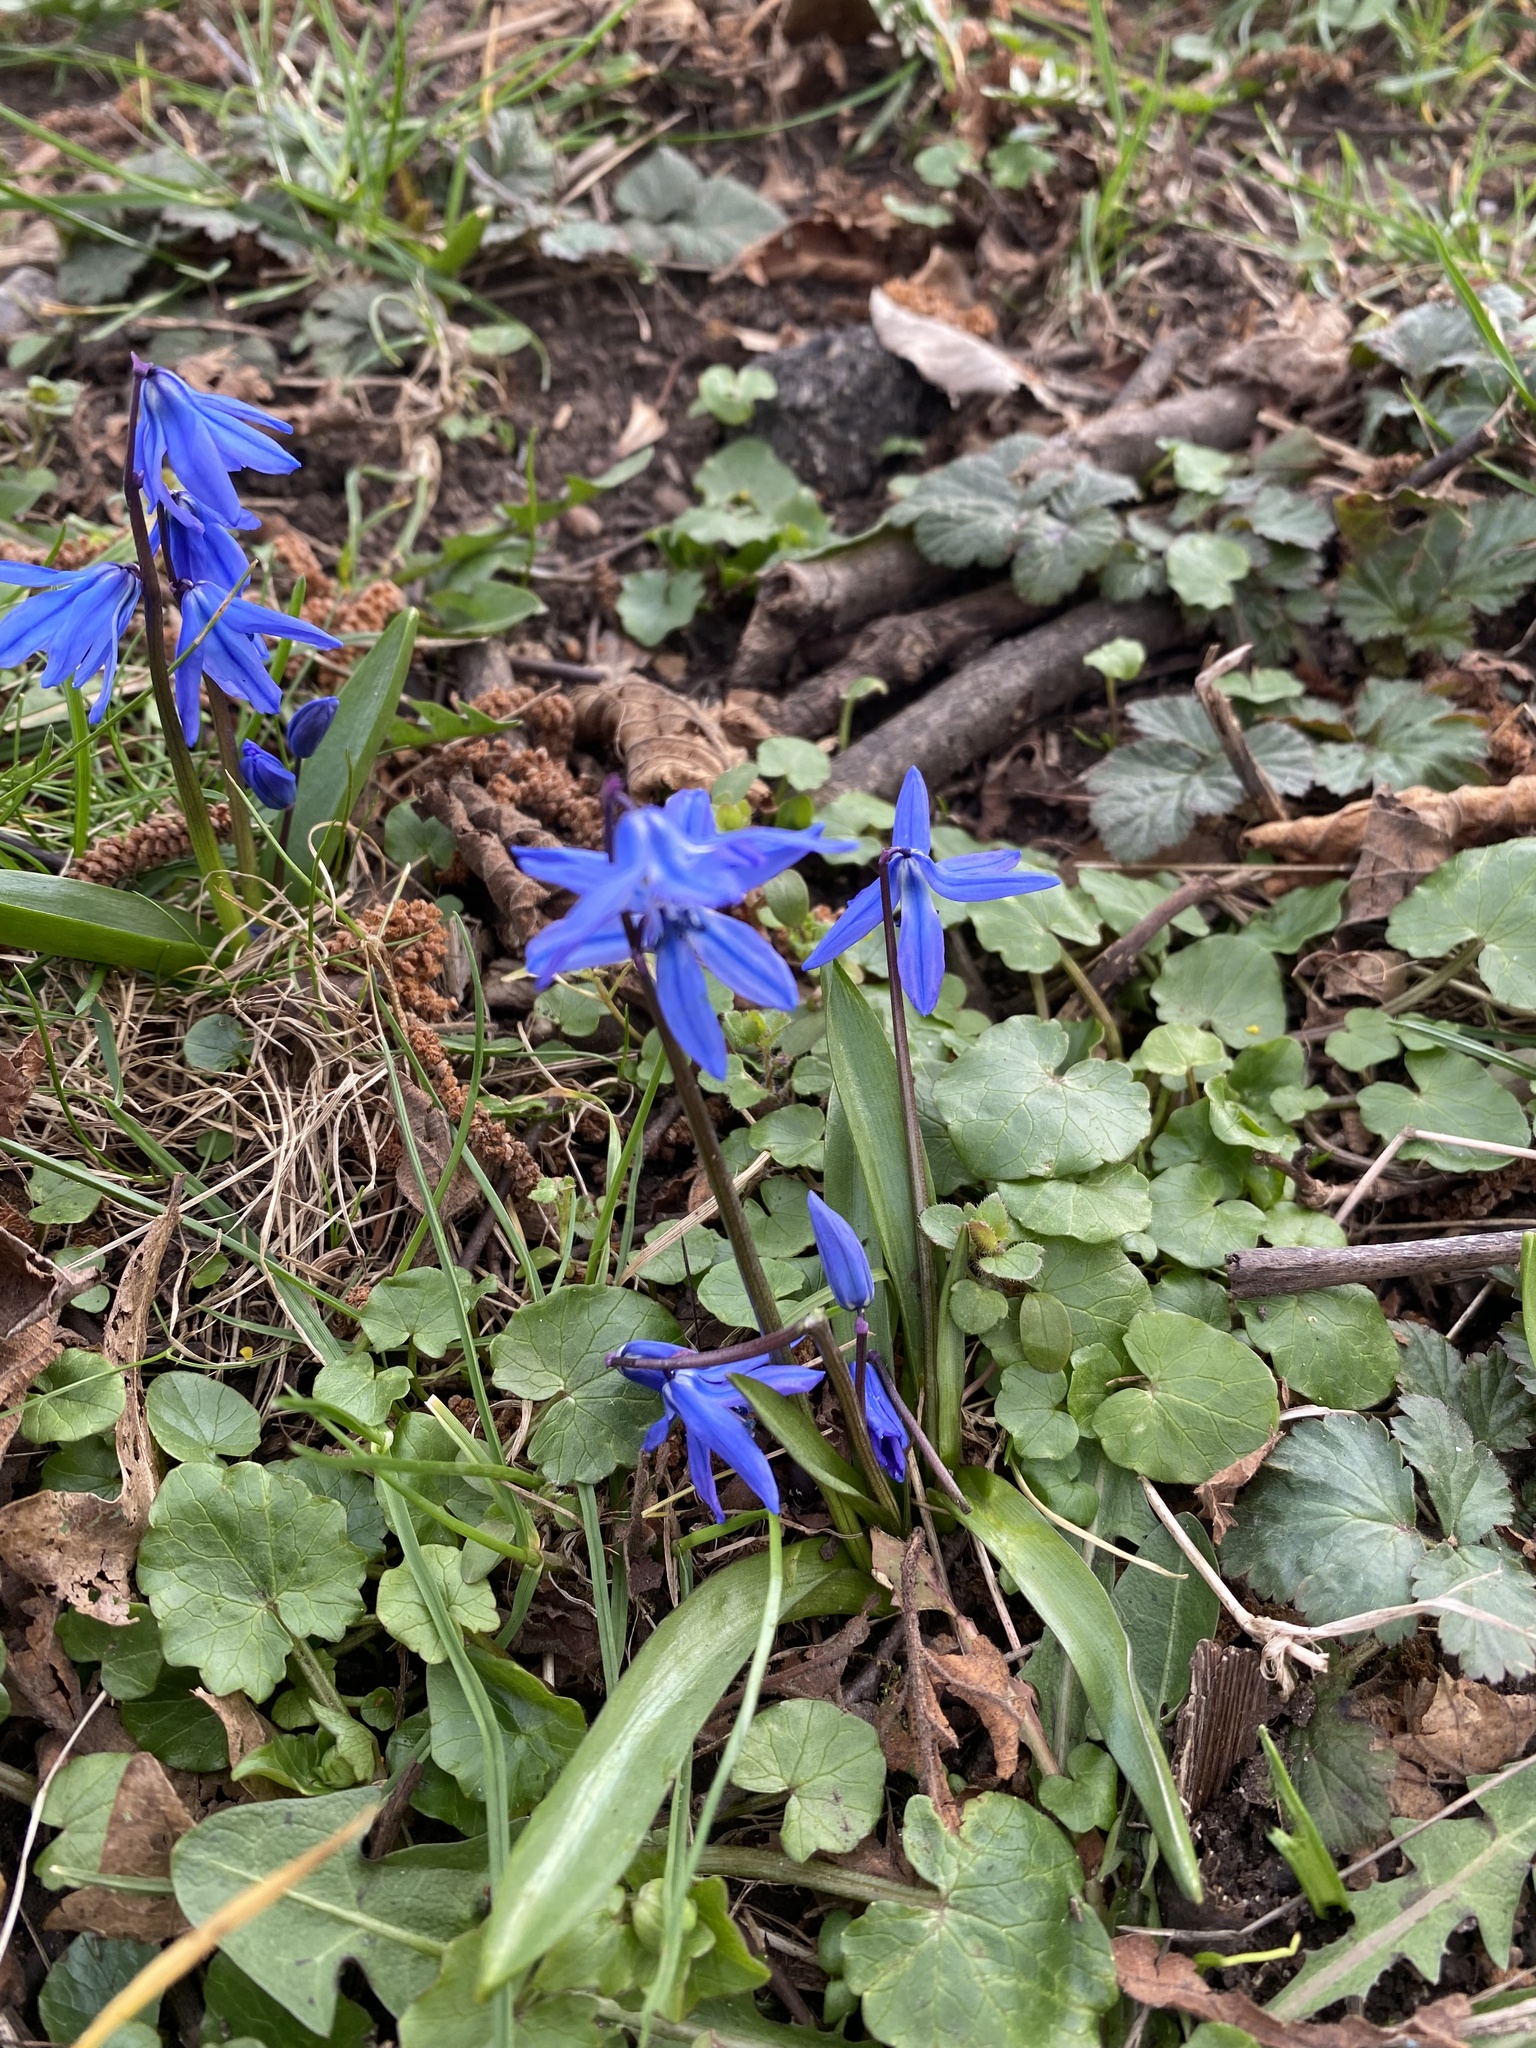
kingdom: Plantae
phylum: Tracheophyta
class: Liliopsida
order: Asparagales
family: Asparagaceae
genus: Scilla
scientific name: Scilla siberica
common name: Siberian squill
